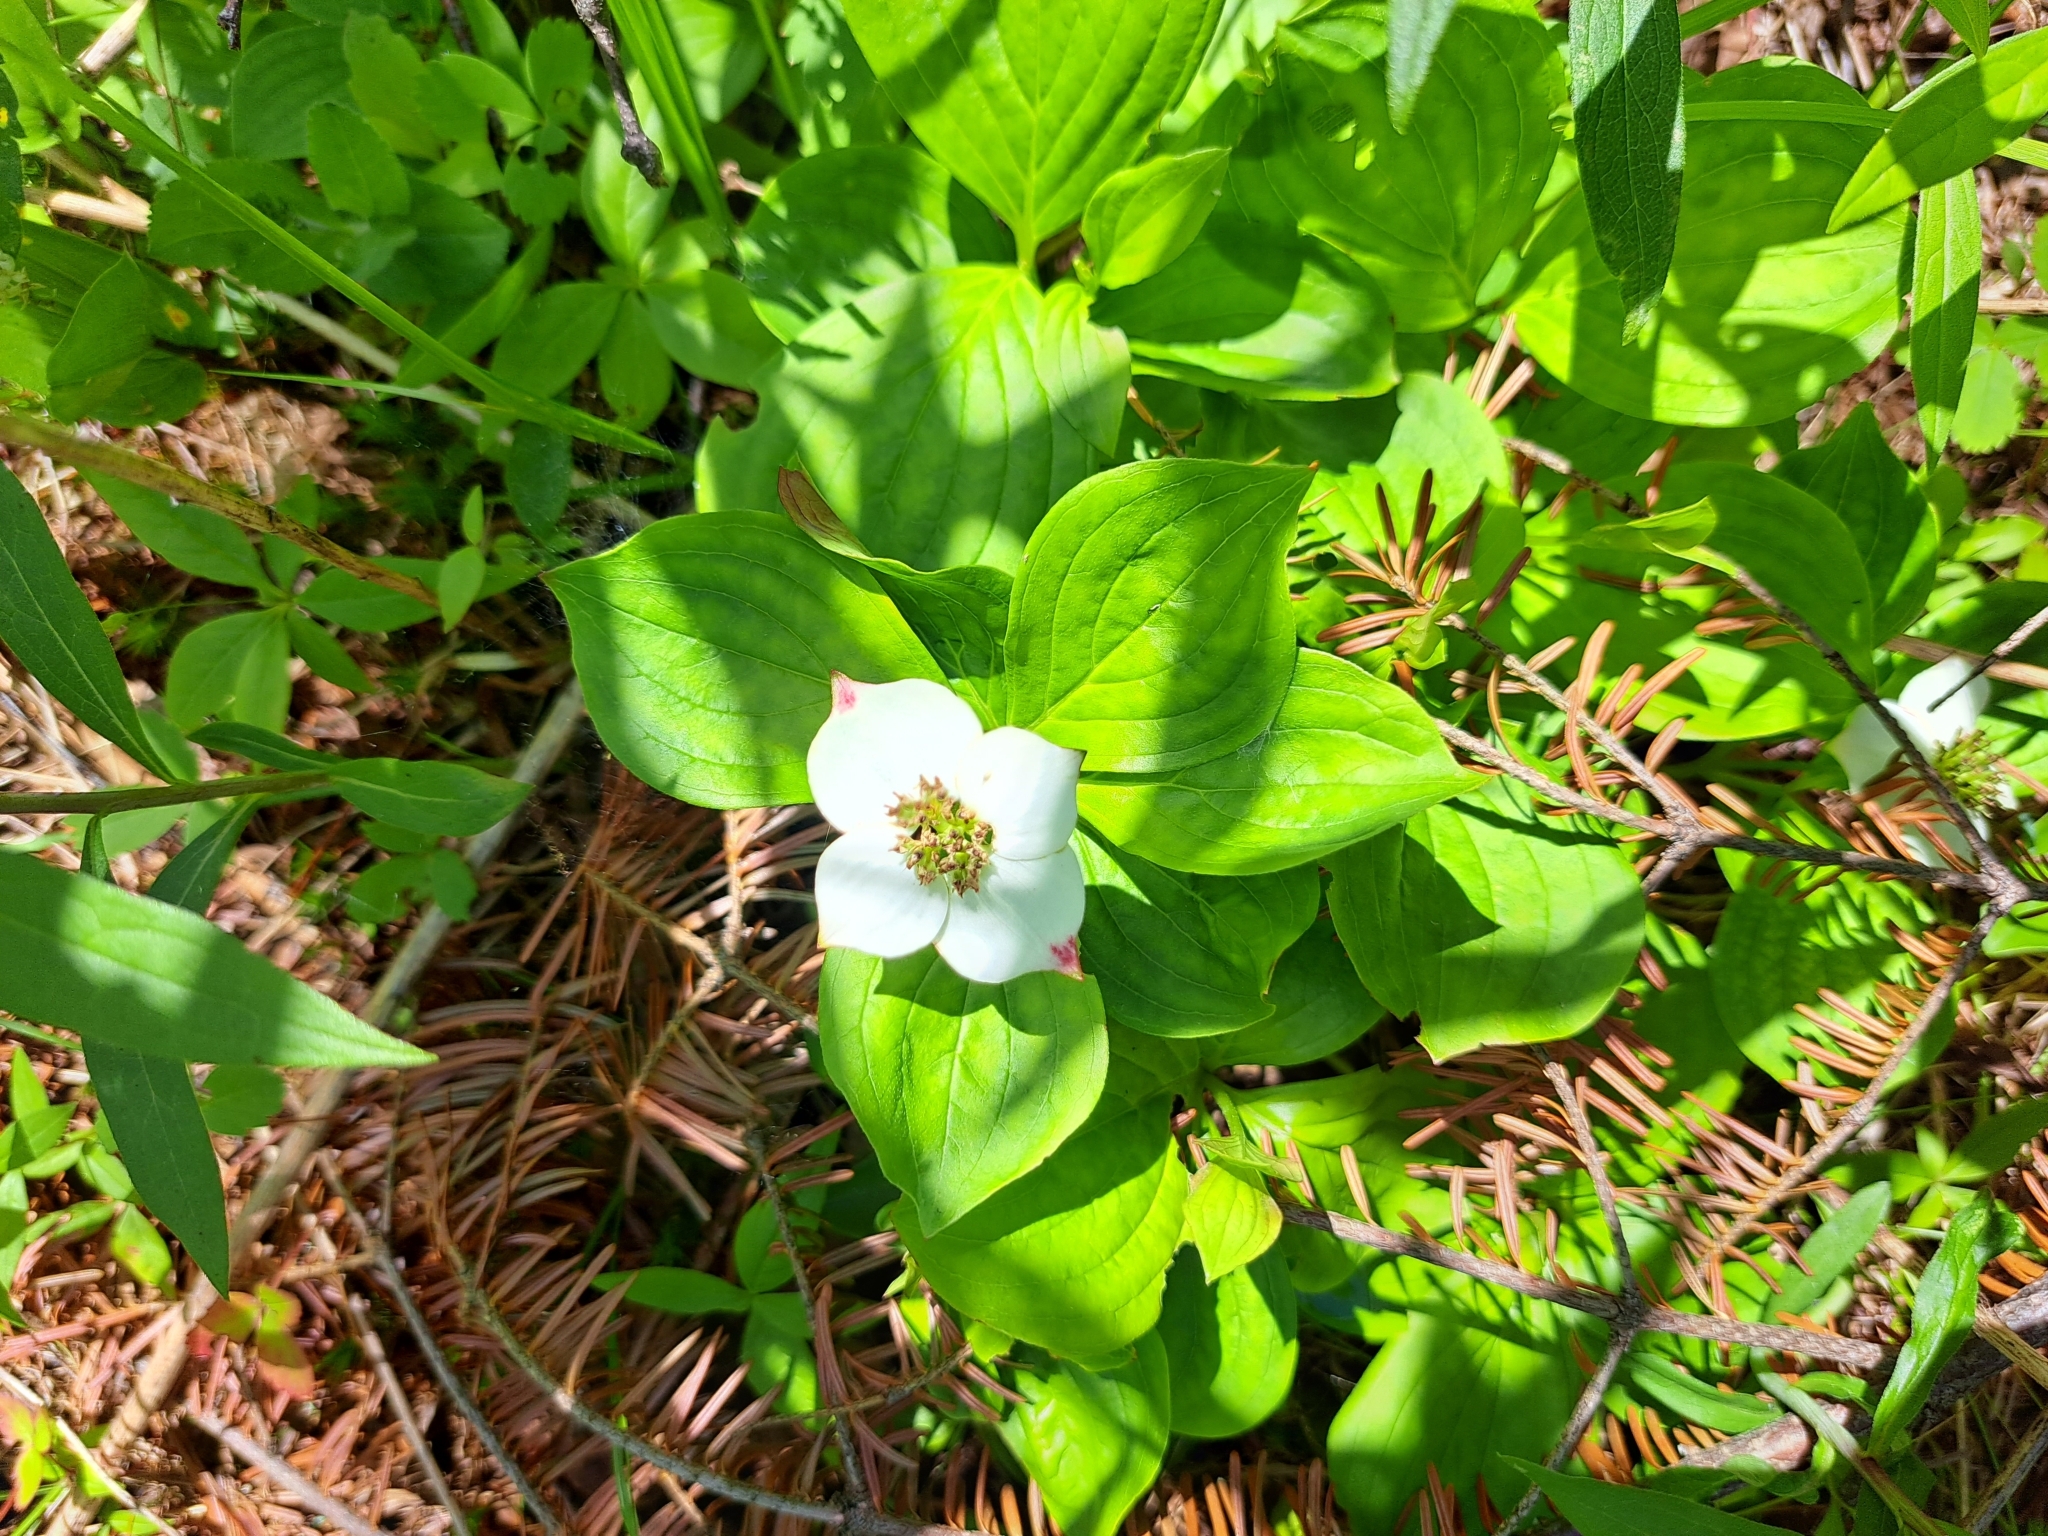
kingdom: Plantae
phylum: Tracheophyta
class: Magnoliopsida
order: Cornales
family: Cornaceae
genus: Cornus
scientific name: Cornus canadensis
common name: Creeping dogwood
